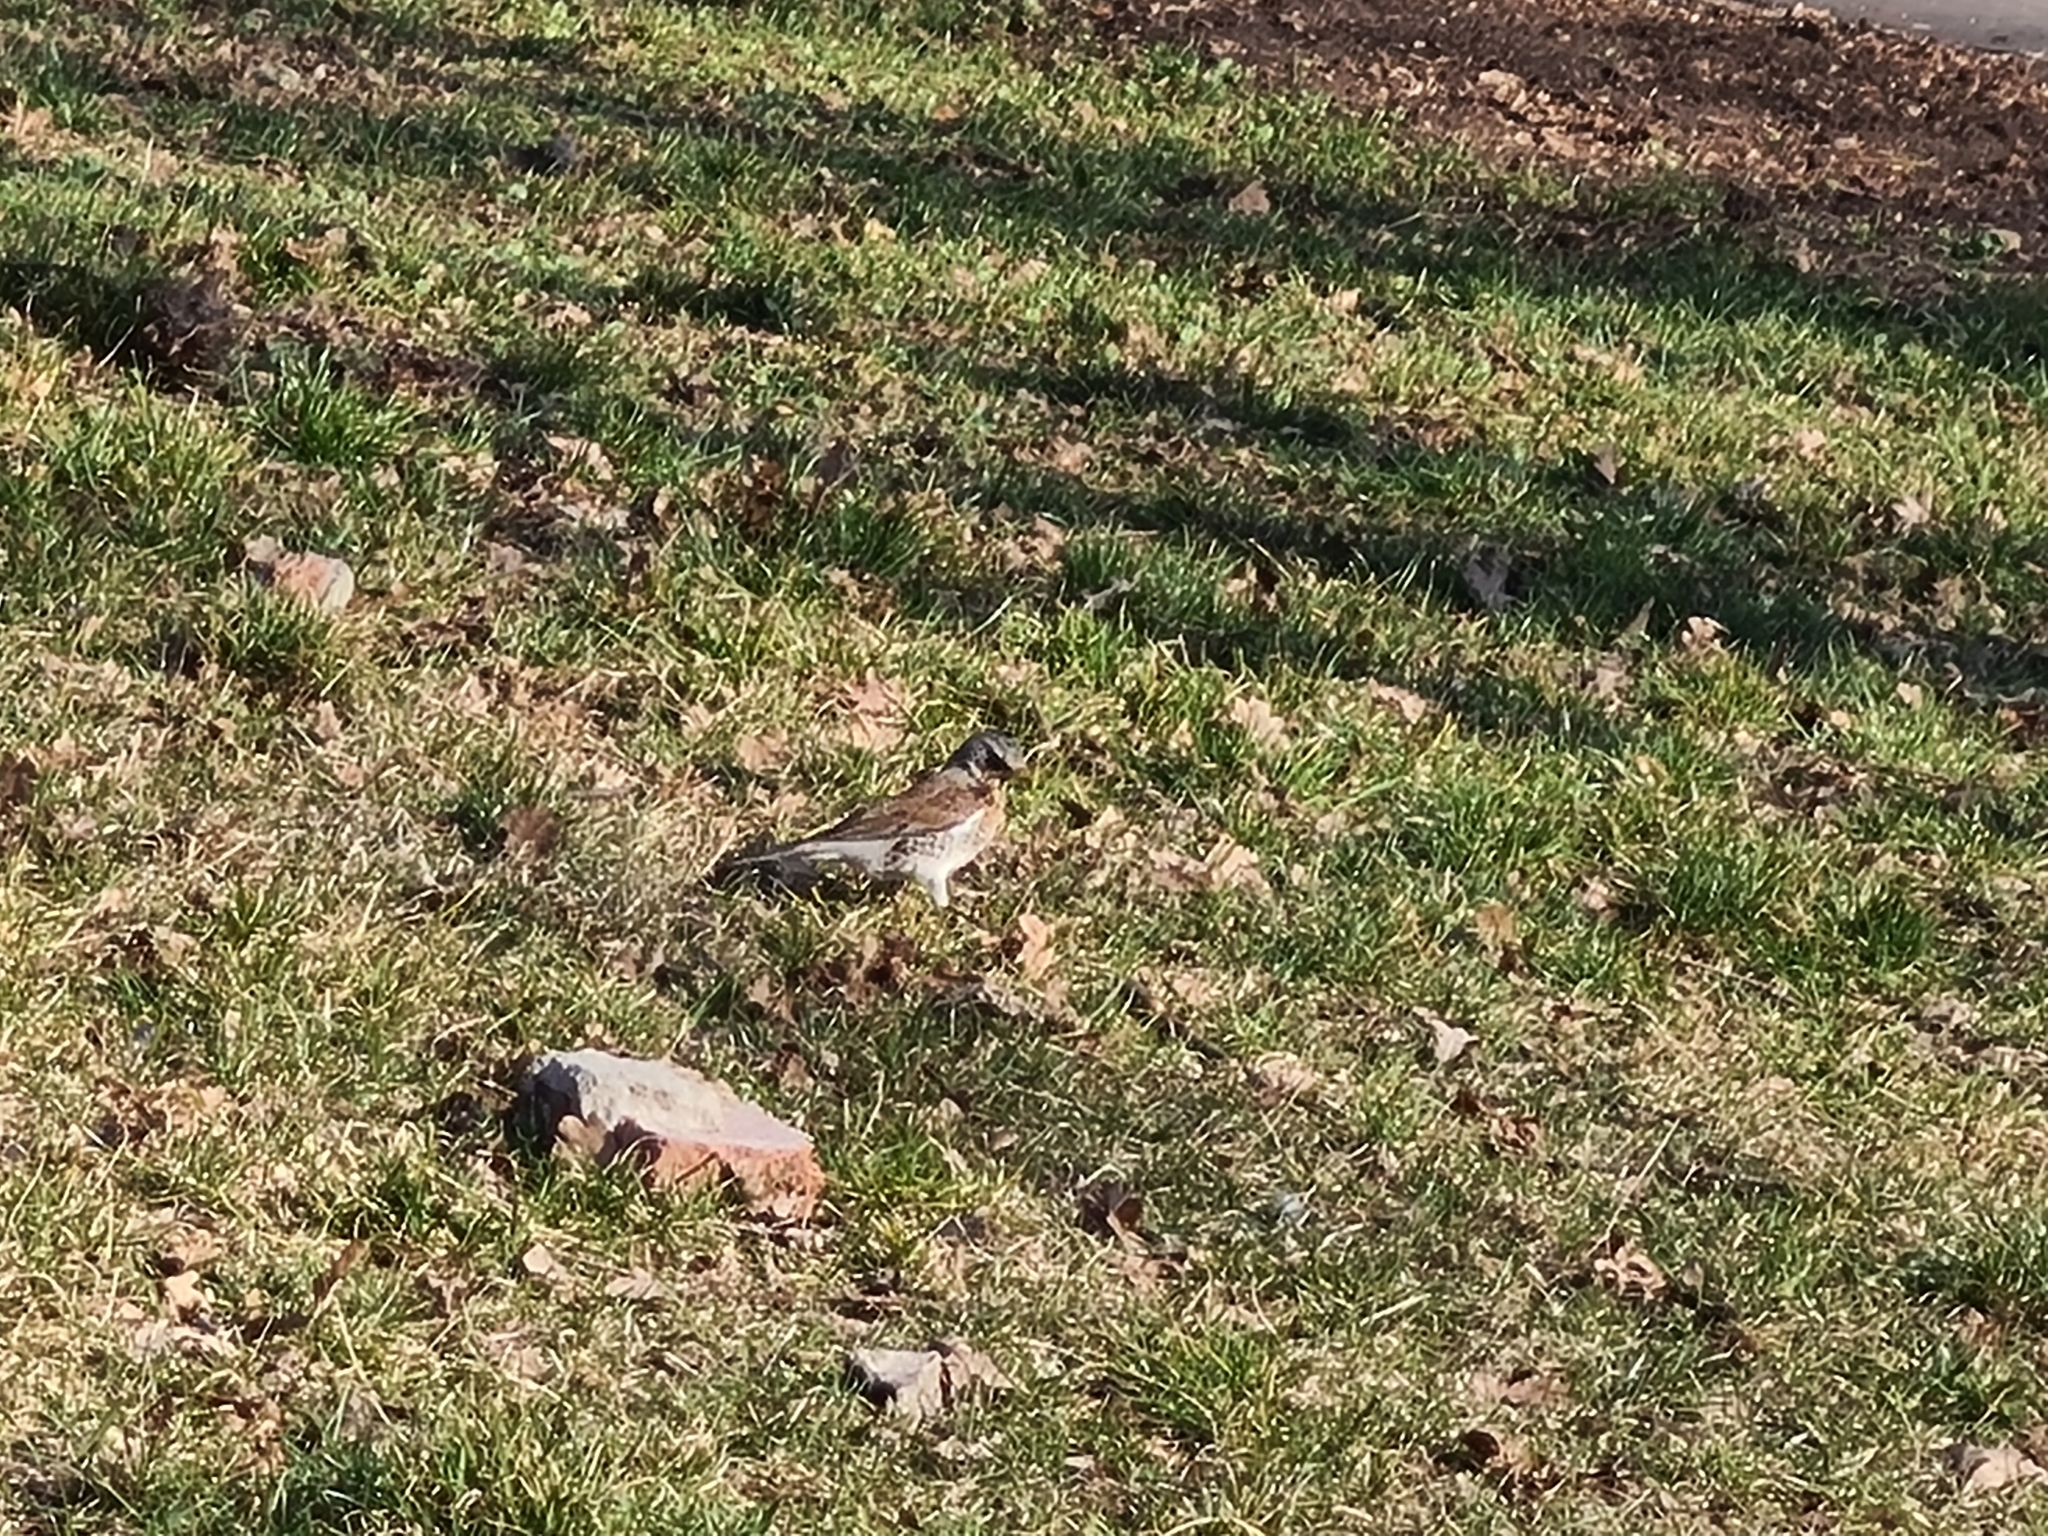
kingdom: Animalia
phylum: Chordata
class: Aves
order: Passeriformes
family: Turdidae
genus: Turdus
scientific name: Turdus pilaris
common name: Fieldfare
